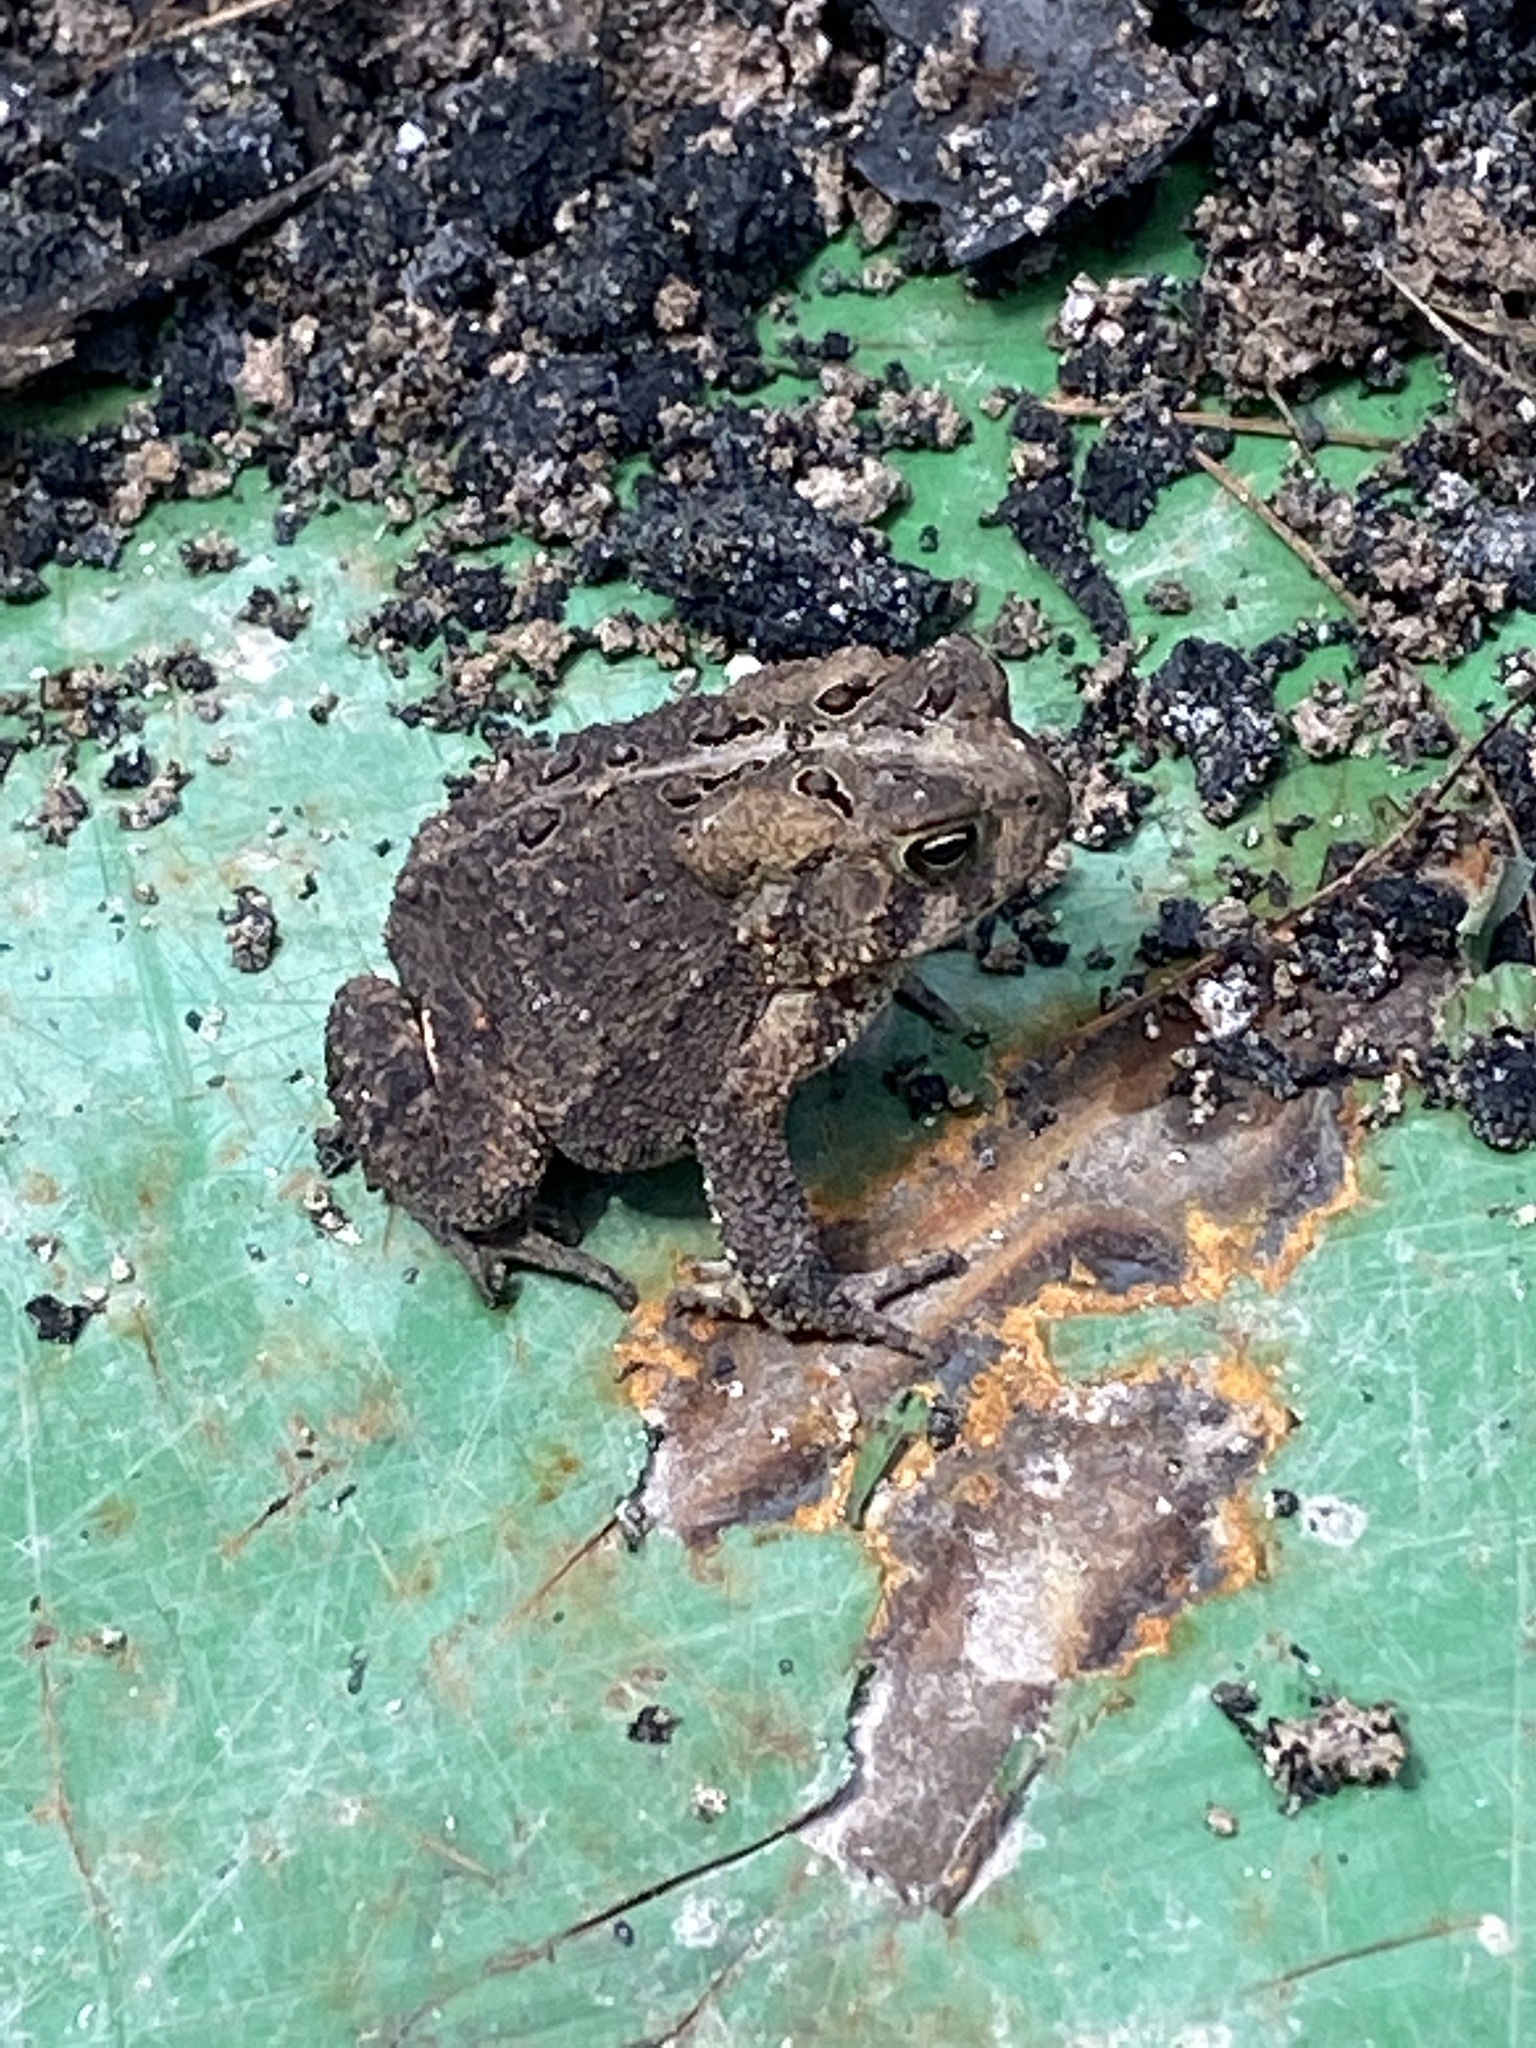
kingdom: Animalia
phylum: Chordata
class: Amphibia
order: Anura
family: Bufonidae
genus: Anaxyrus
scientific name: Anaxyrus americanus
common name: American toad
